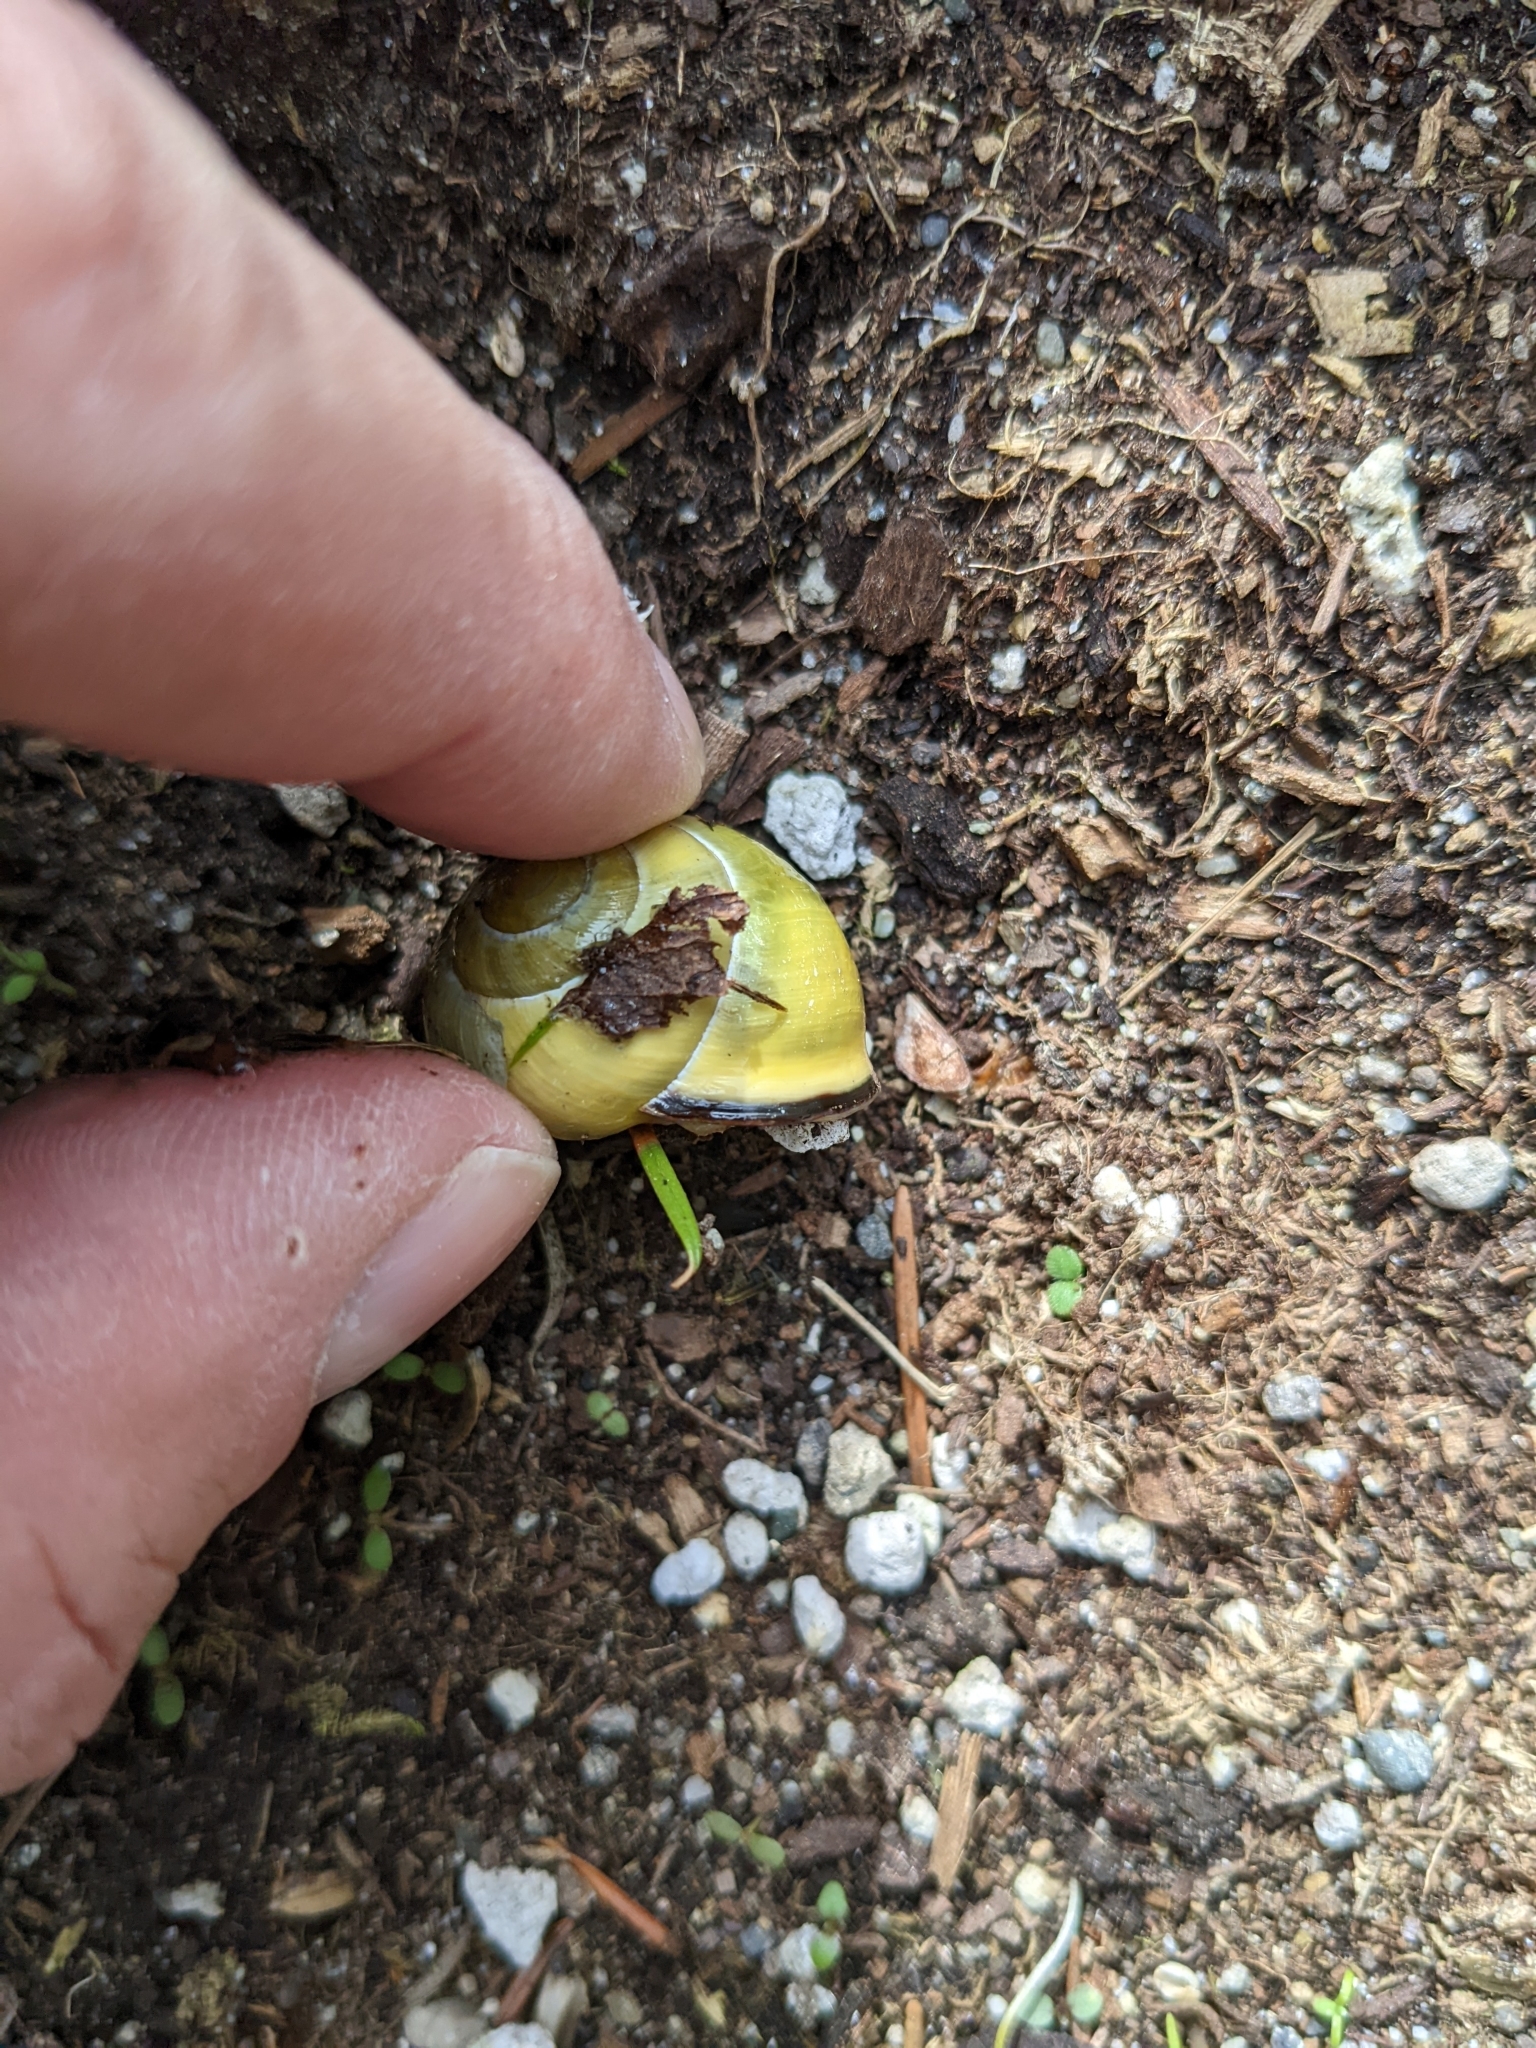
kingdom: Animalia
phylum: Mollusca
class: Gastropoda
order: Stylommatophora
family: Helicidae
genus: Cepaea
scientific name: Cepaea nemoralis
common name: Grovesnail
